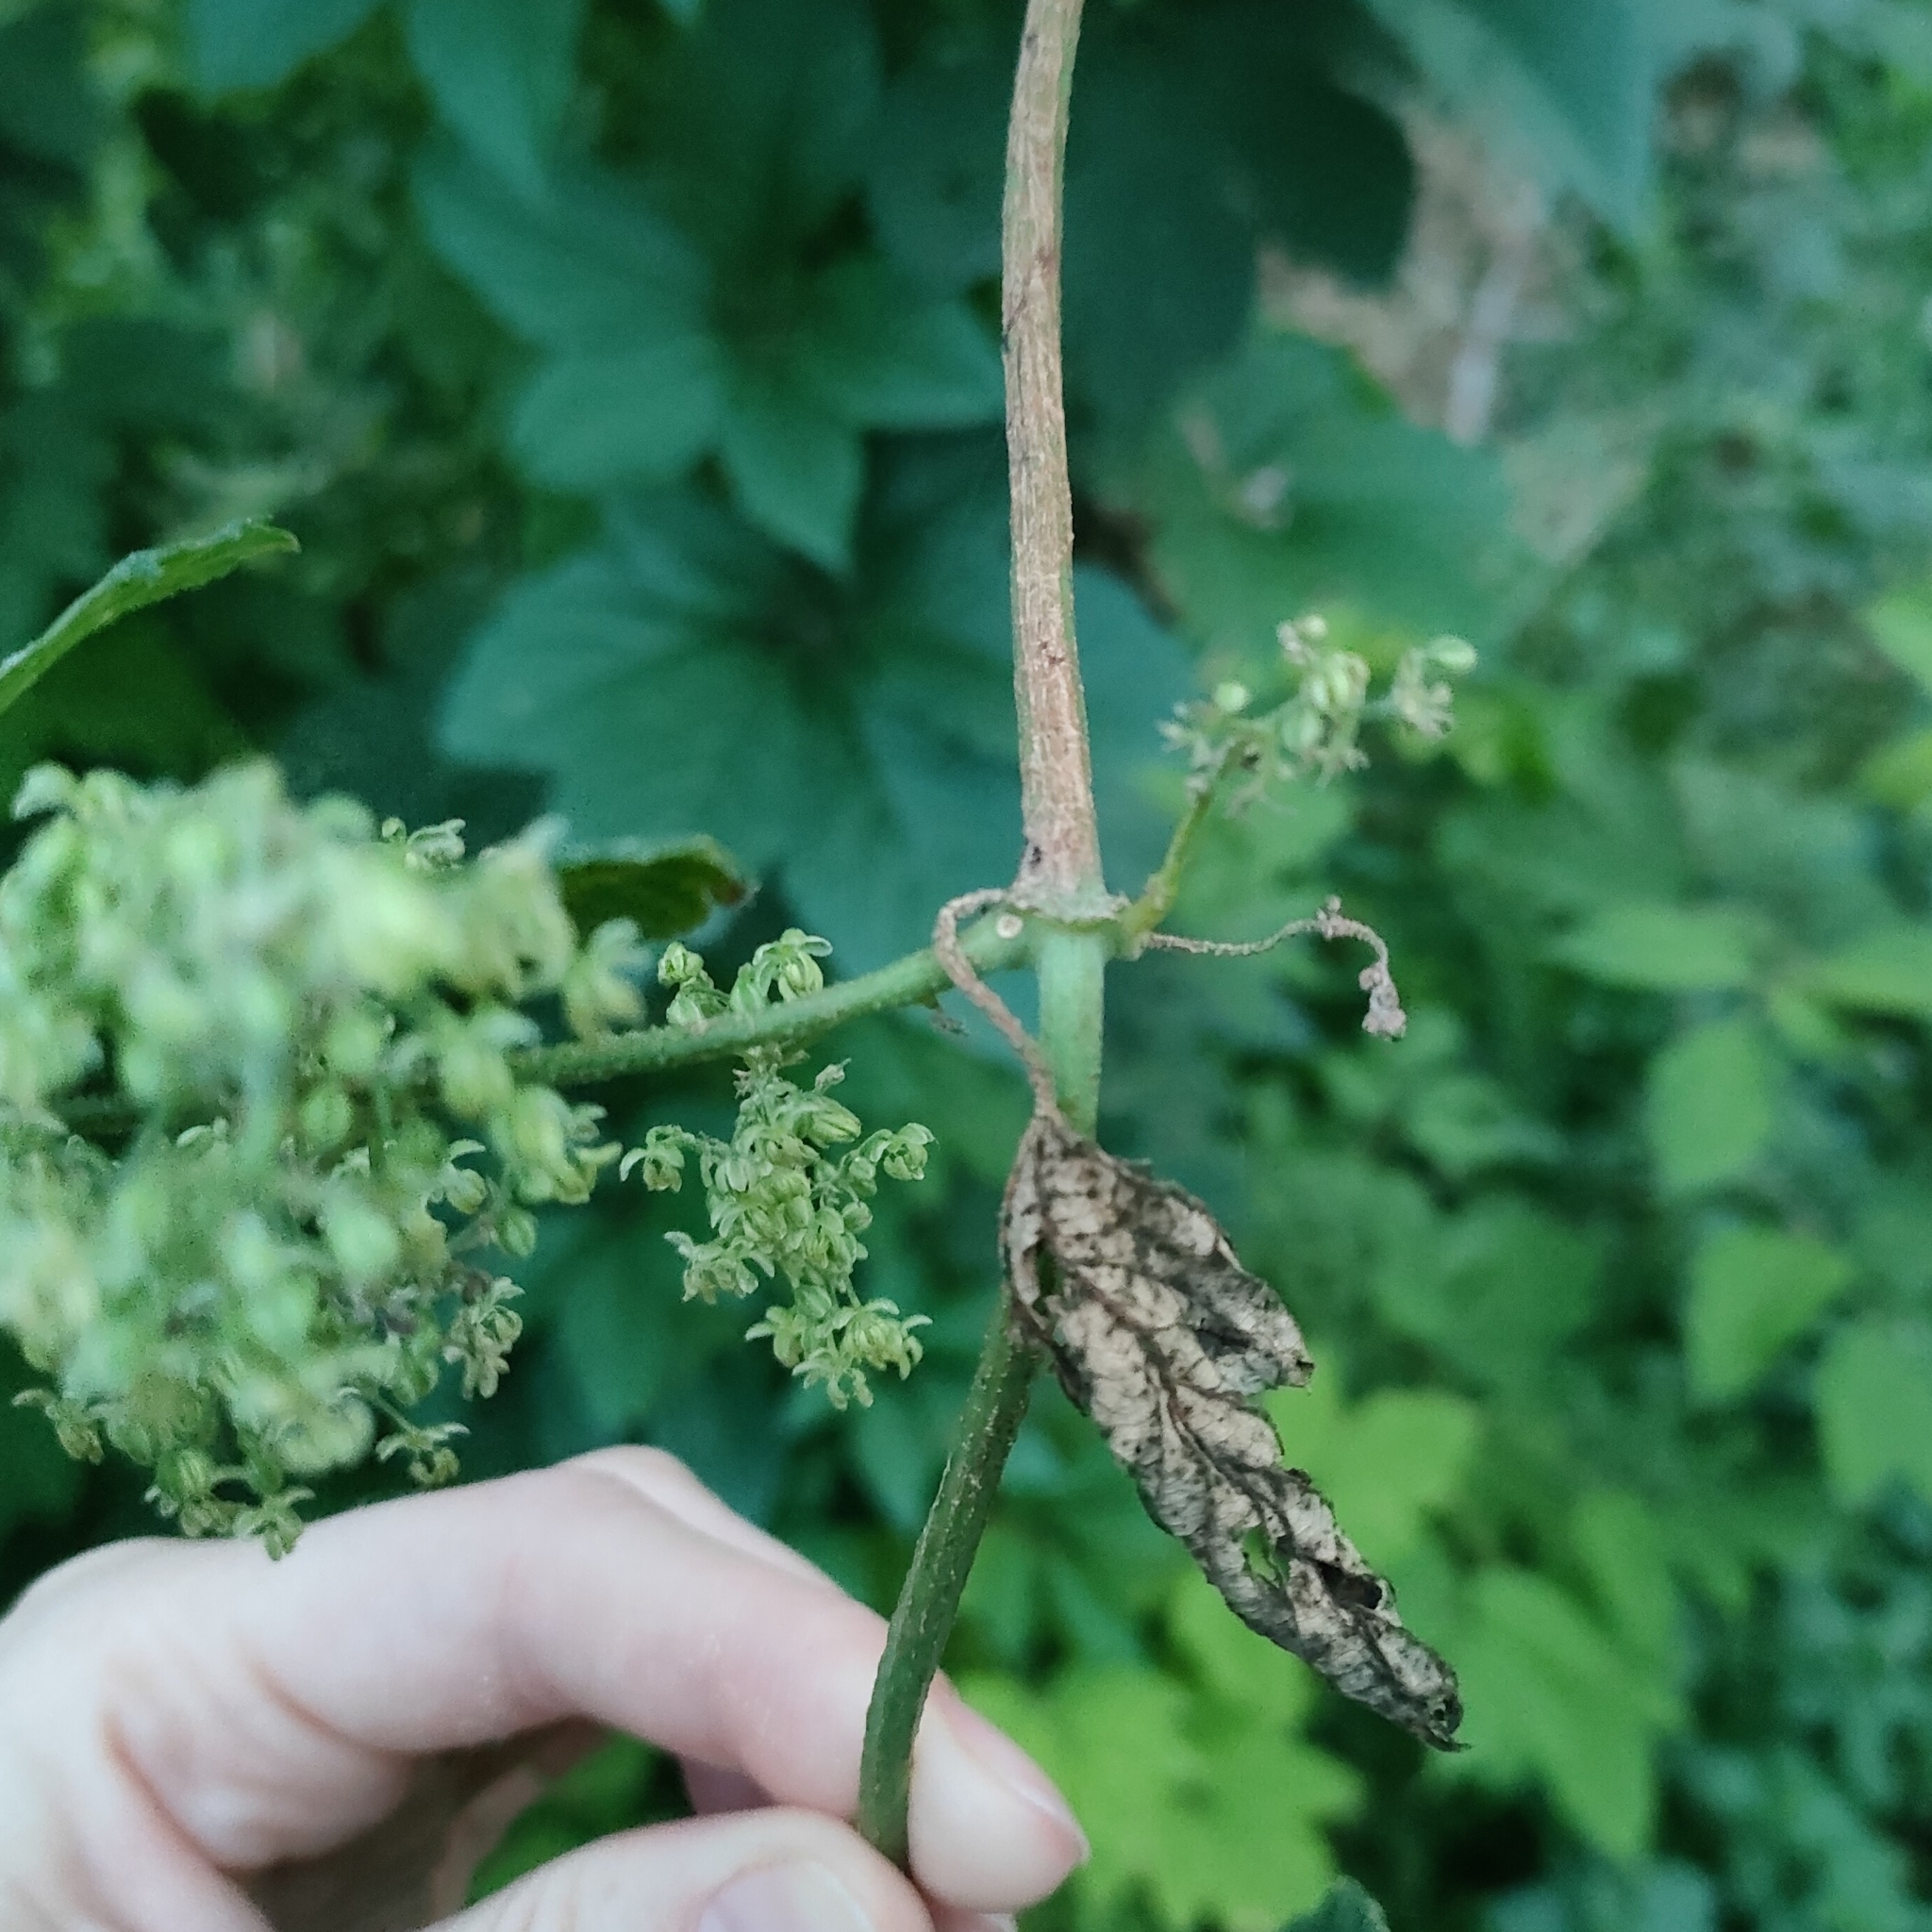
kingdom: Plantae
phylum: Tracheophyta
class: Magnoliopsida
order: Rosales
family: Cannabaceae
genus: Humulus
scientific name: Humulus lupulus
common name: Hop
